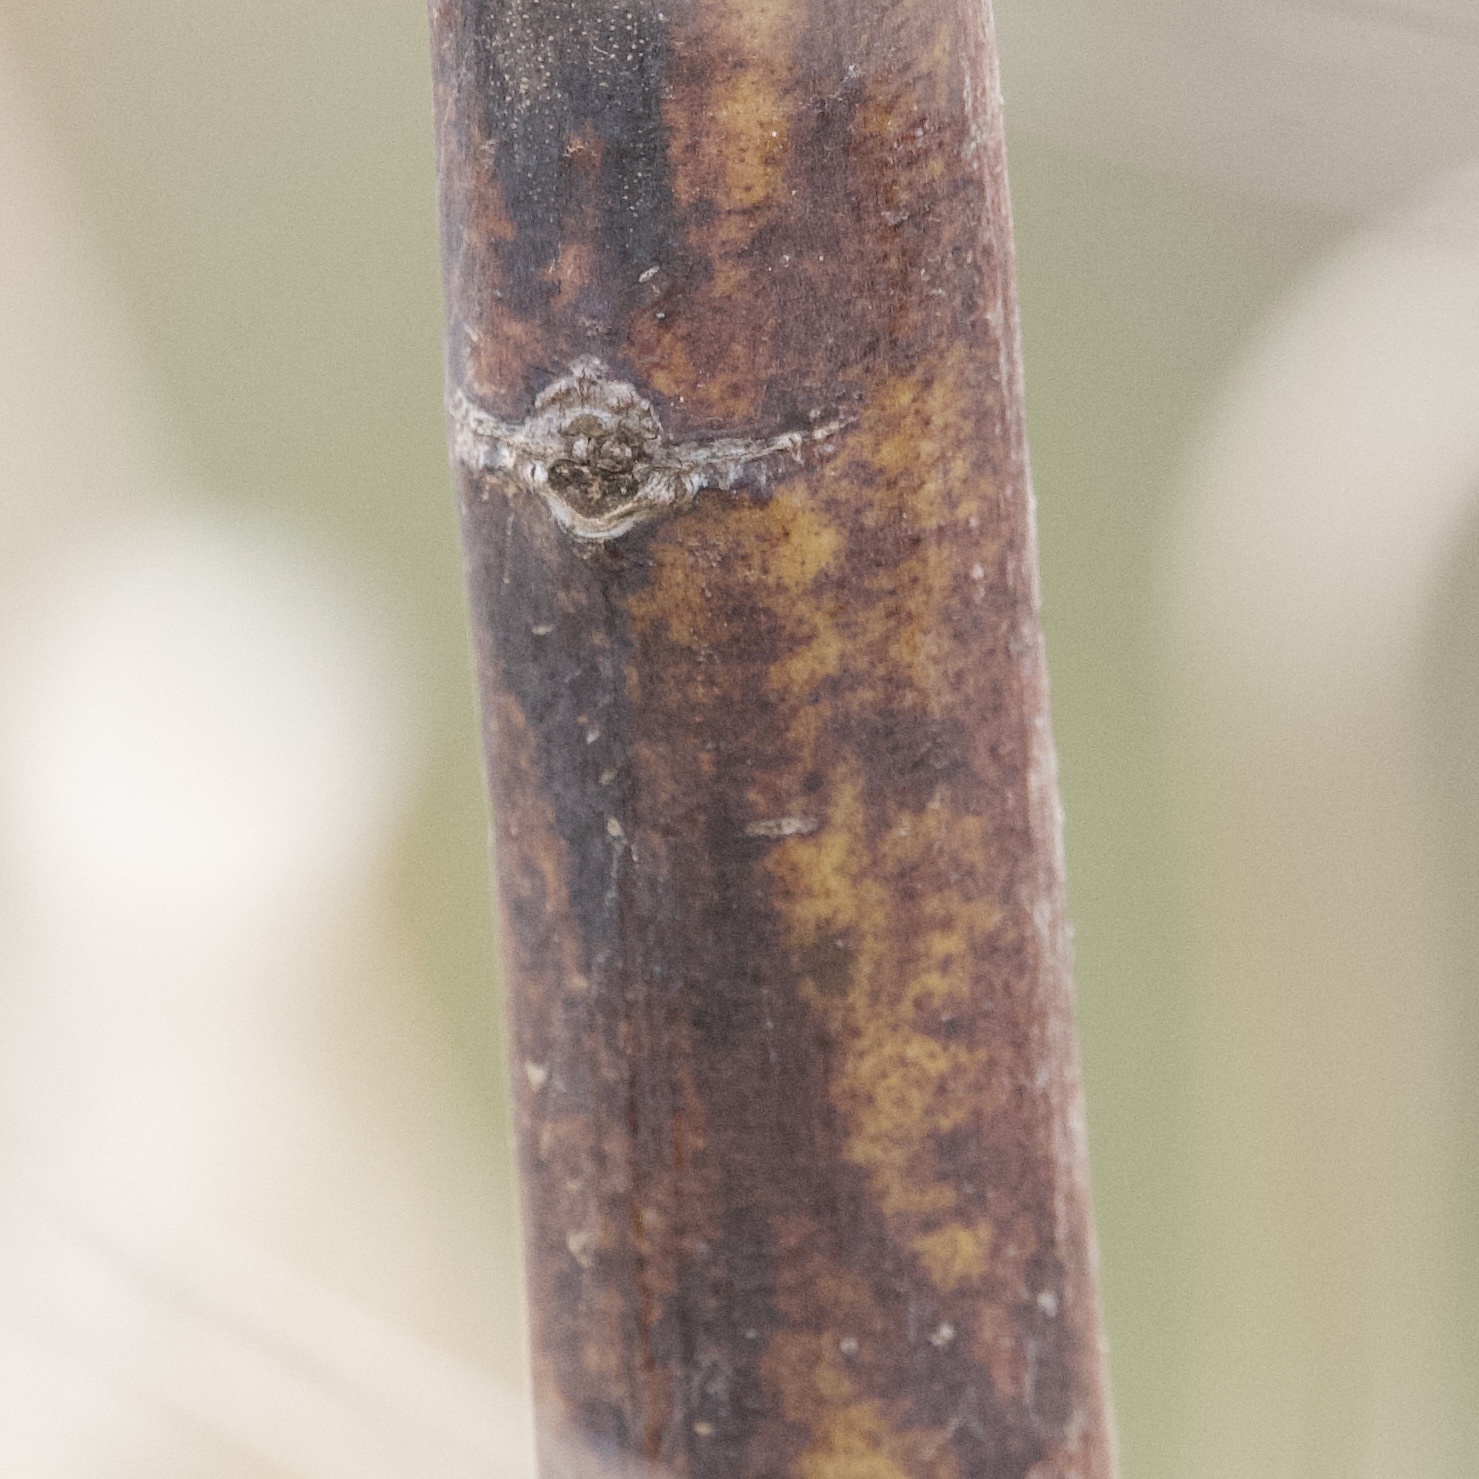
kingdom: Plantae
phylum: Tracheophyta
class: Magnoliopsida
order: Fabales
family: Fabaceae
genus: Sesbania
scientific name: Sesbania drummondii
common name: Poison-bean
